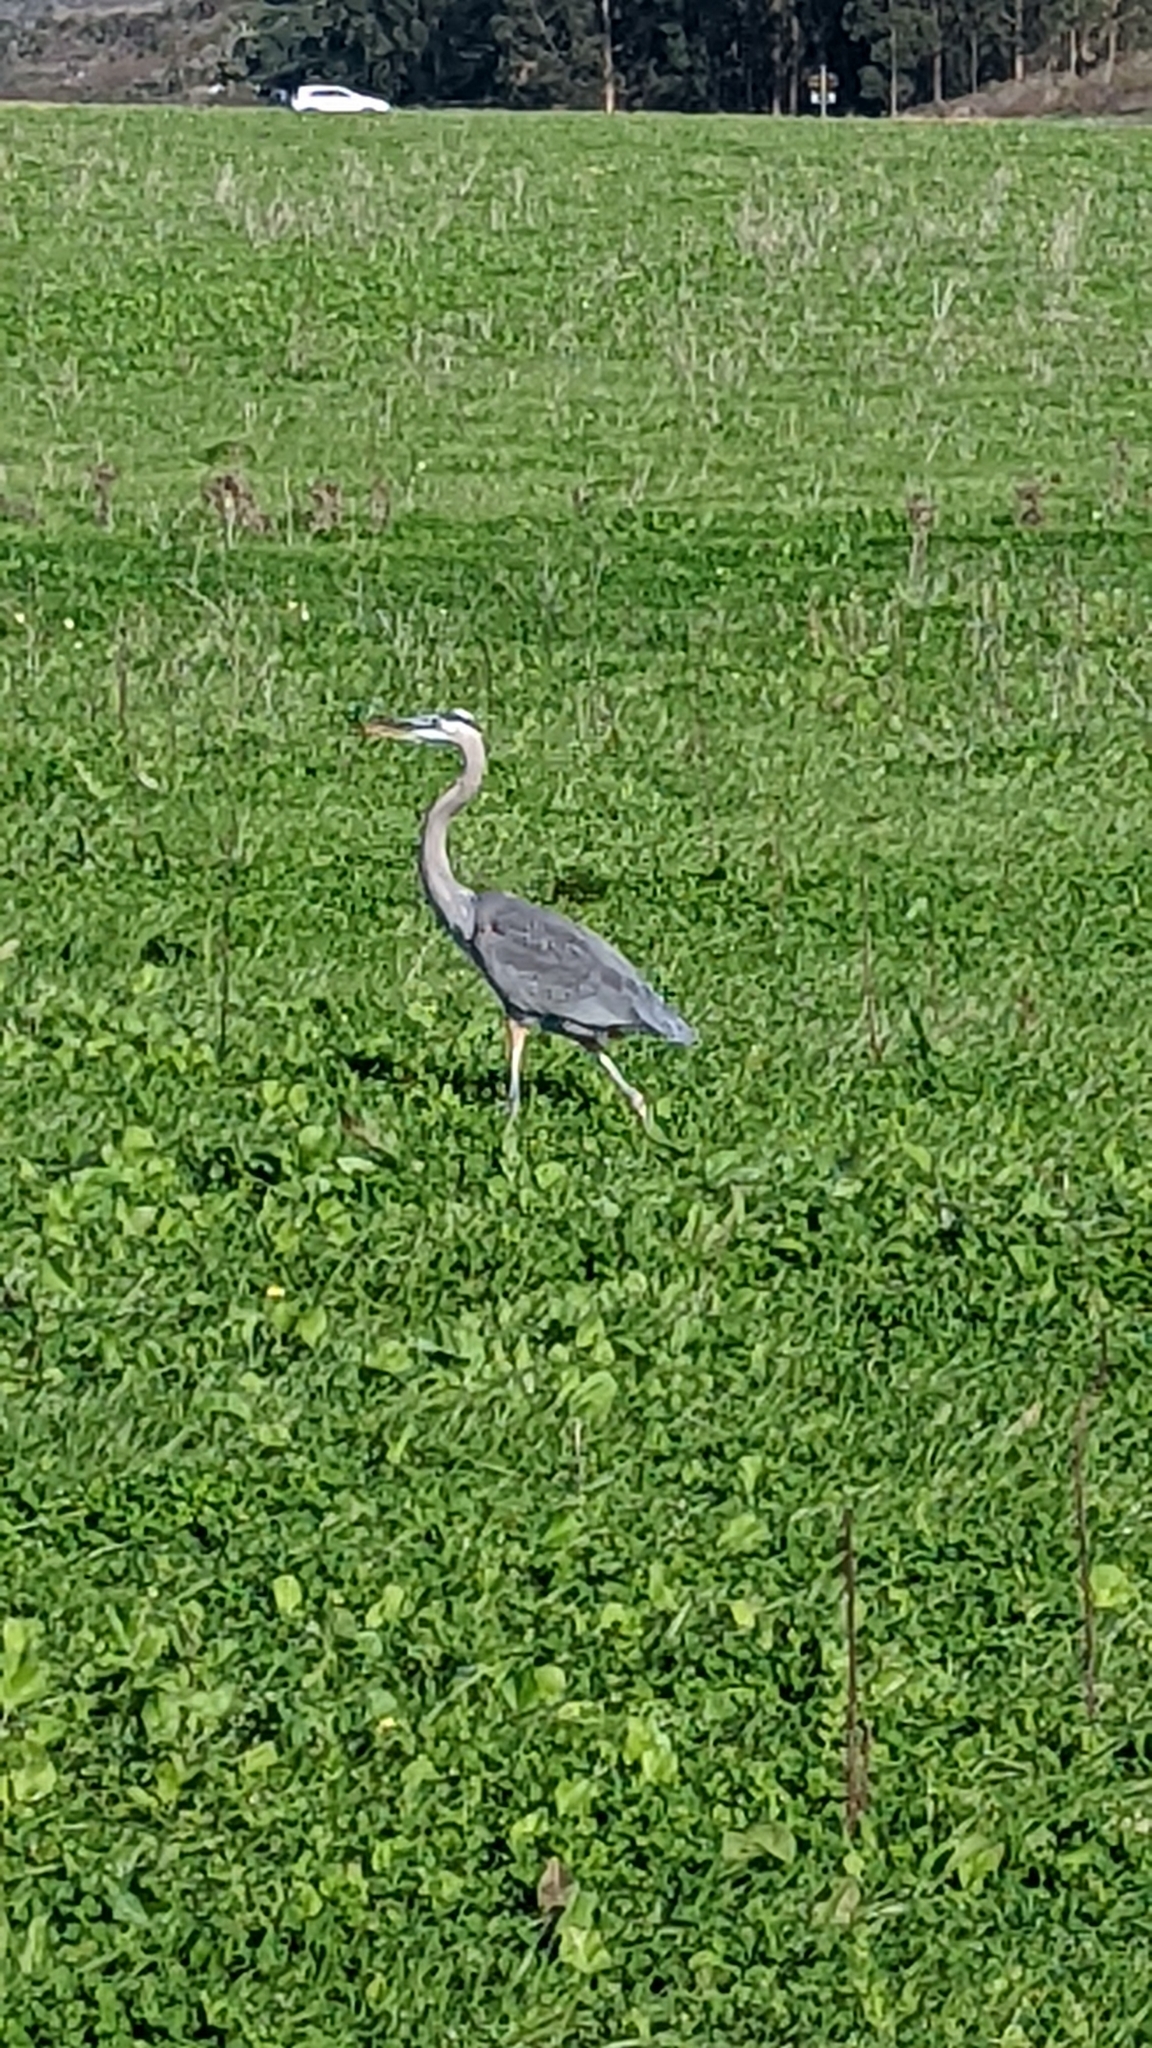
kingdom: Animalia
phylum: Chordata
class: Aves
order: Pelecaniformes
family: Ardeidae
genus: Ardea
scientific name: Ardea herodias
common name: Great blue heron
